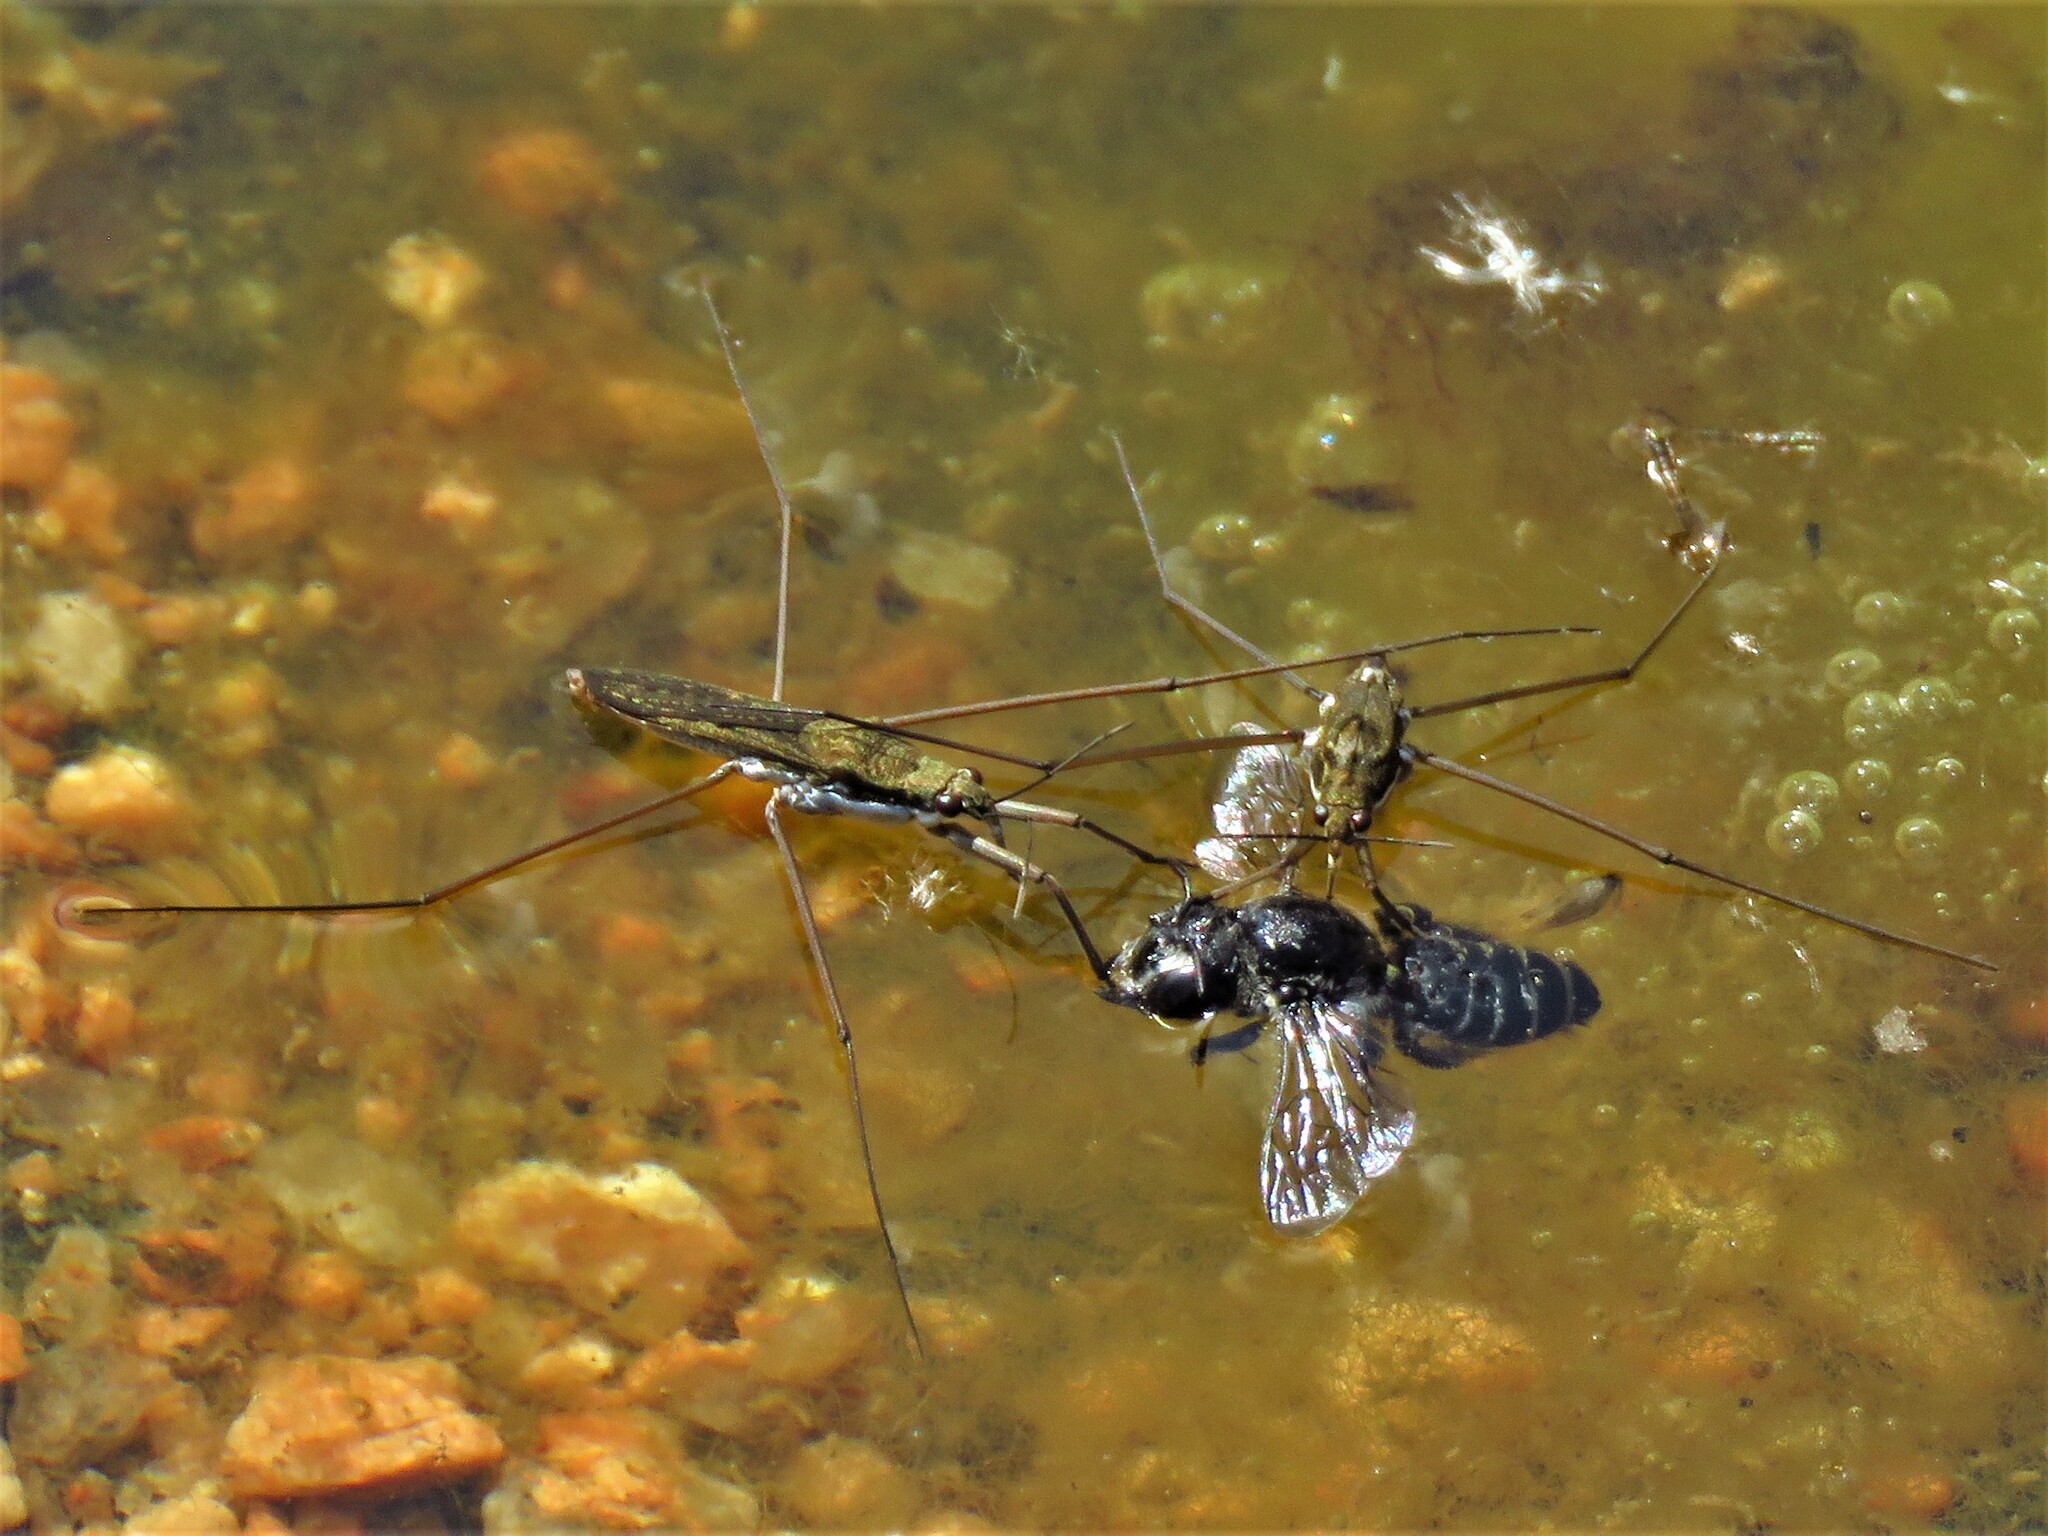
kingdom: Animalia
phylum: Arthropoda
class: Insecta
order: Hemiptera
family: Gerridae
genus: Aquarius
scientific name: Aquarius remigis
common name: Common water strider
